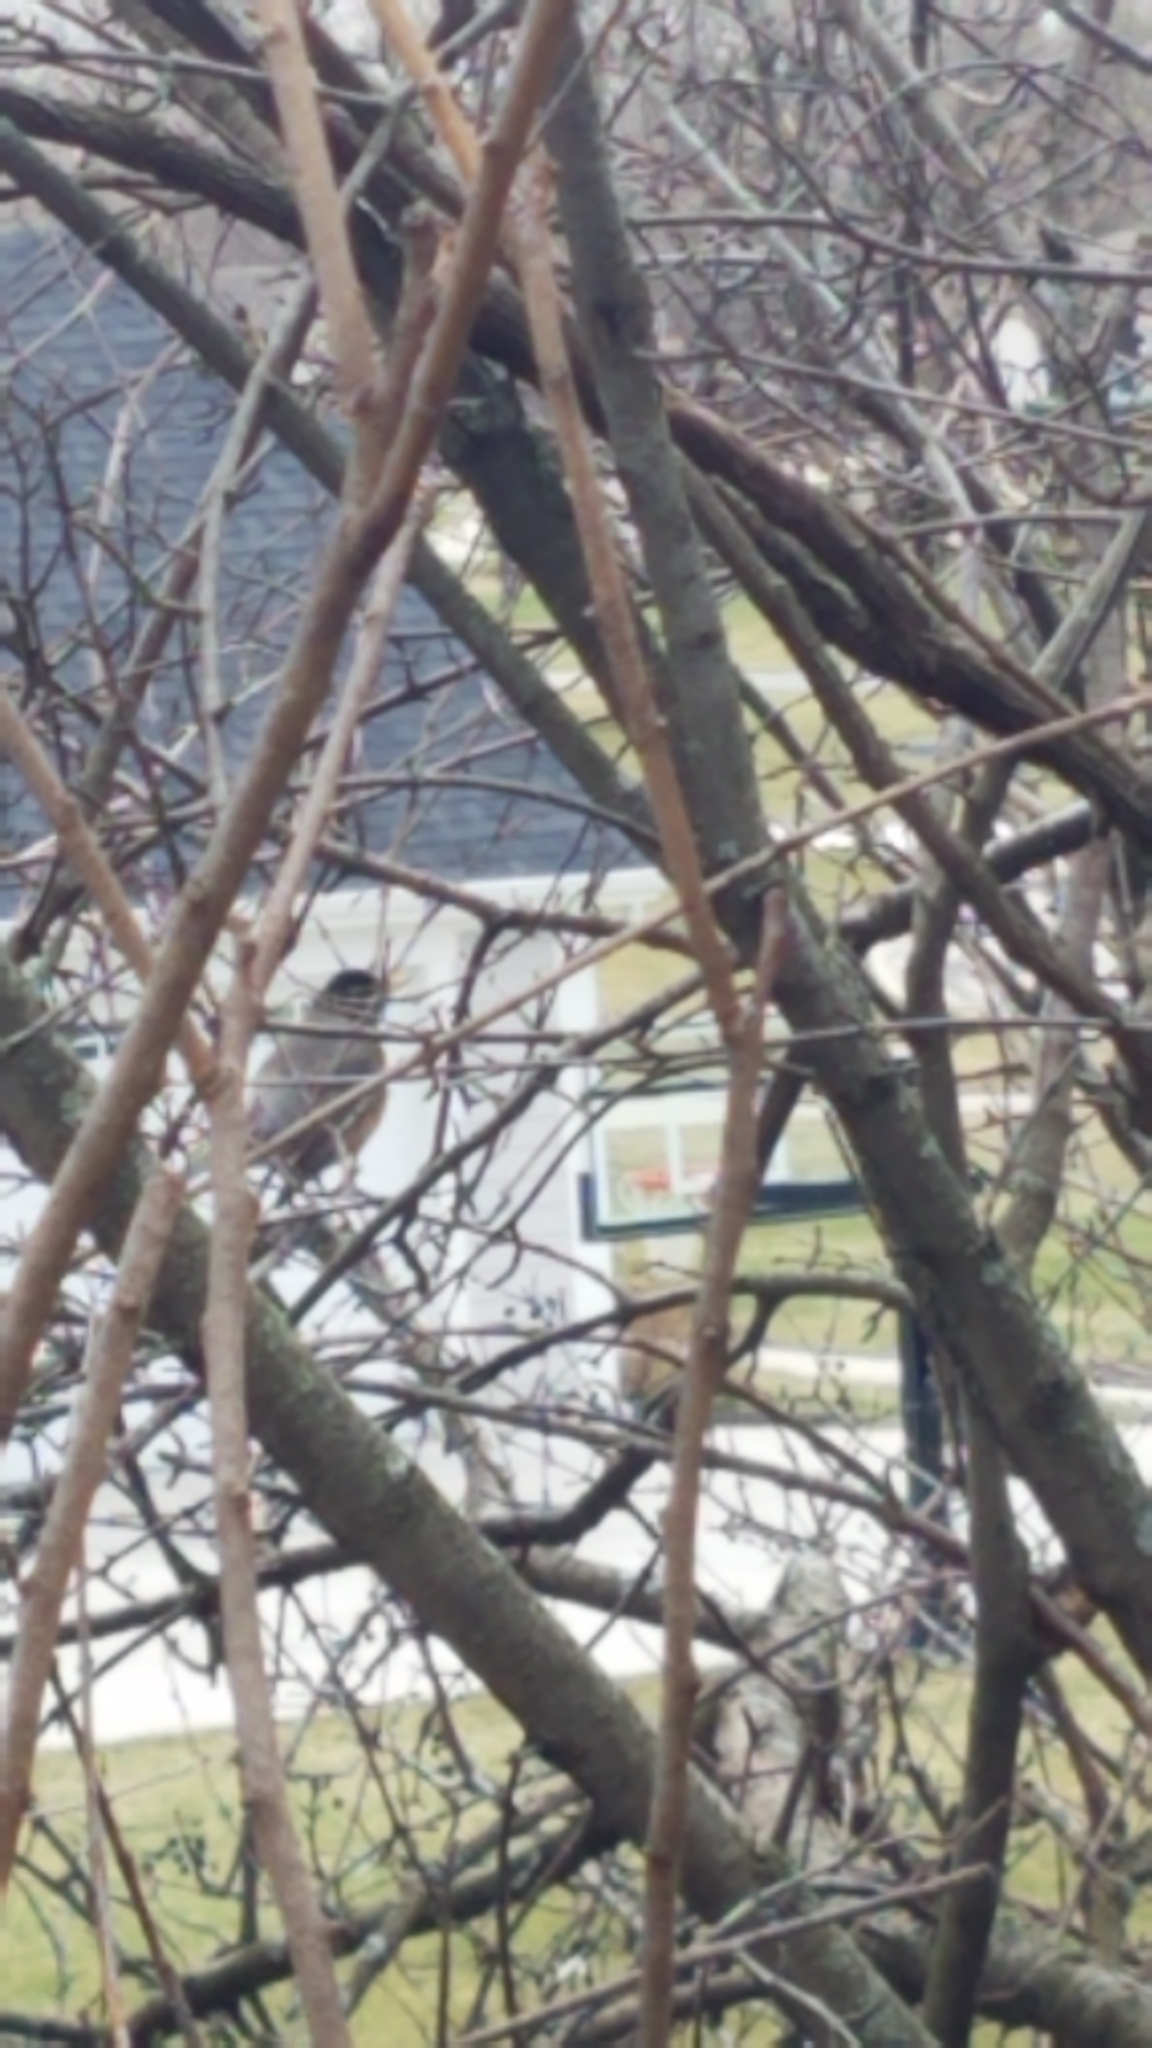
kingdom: Animalia
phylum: Chordata
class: Aves
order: Passeriformes
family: Turdidae
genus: Turdus
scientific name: Turdus migratorius
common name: American robin
